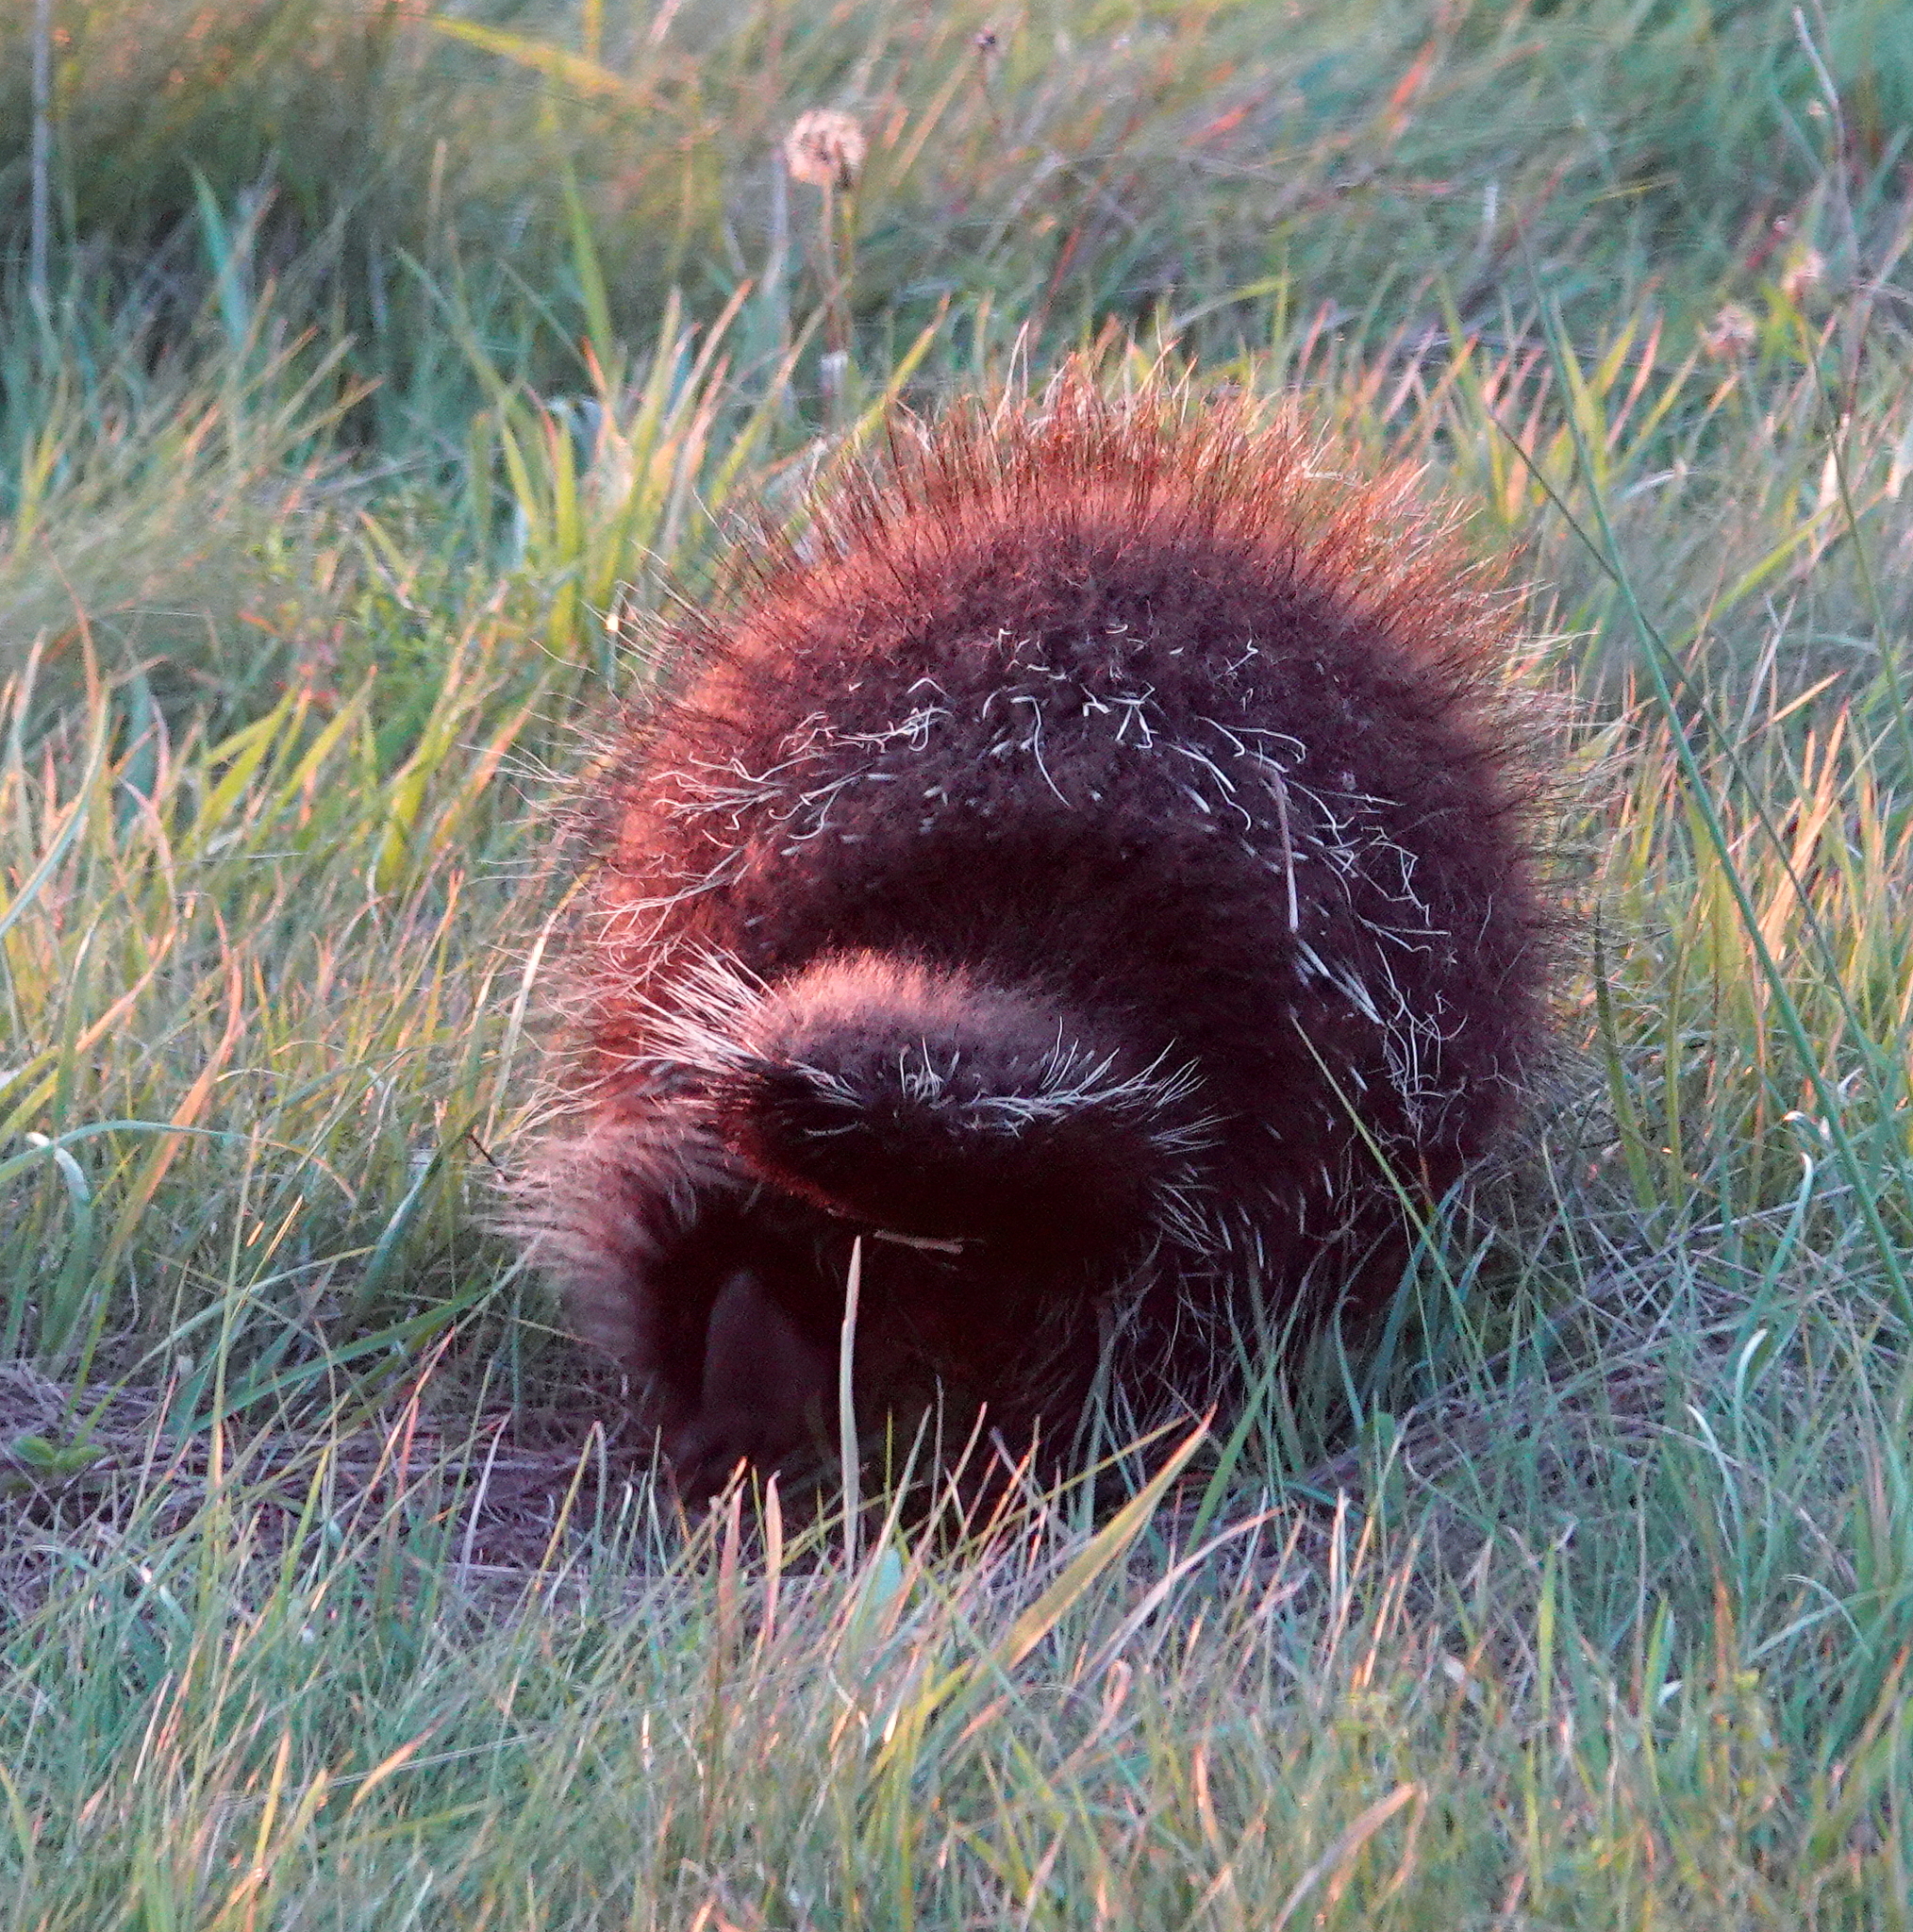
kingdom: Animalia
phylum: Chordata
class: Mammalia
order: Rodentia
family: Erethizontidae
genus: Erethizon
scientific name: Erethizon dorsatus
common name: North american porcupine
